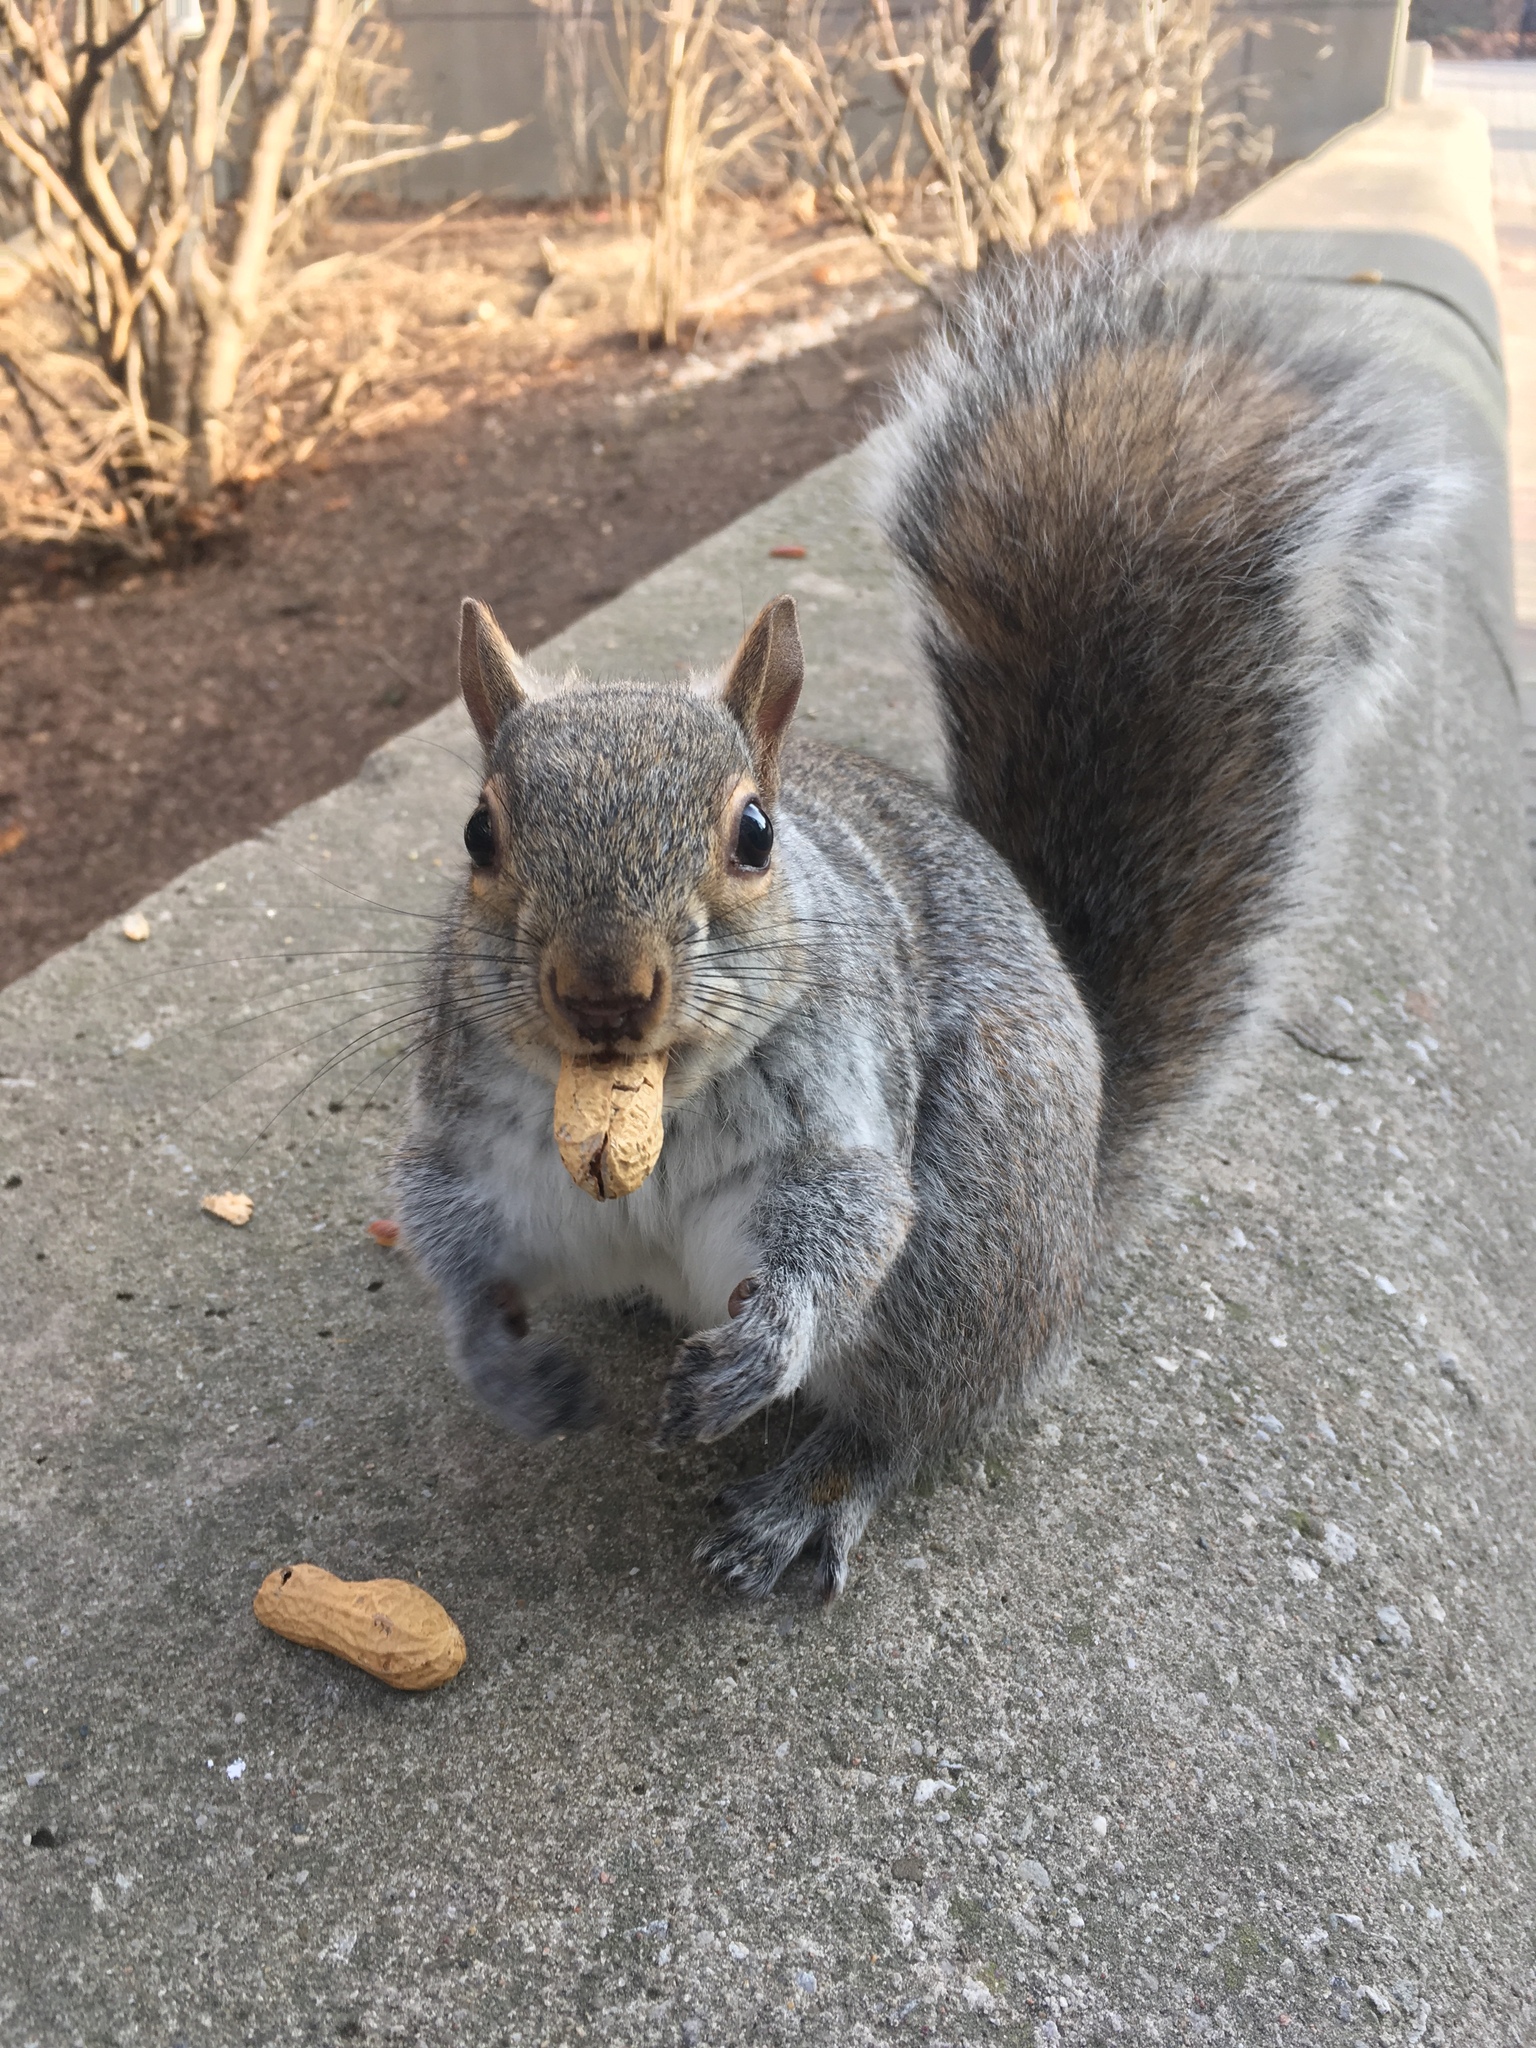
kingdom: Animalia
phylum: Chordata
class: Mammalia
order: Rodentia
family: Sciuridae
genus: Sciurus
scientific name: Sciurus carolinensis
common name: Eastern gray squirrel
